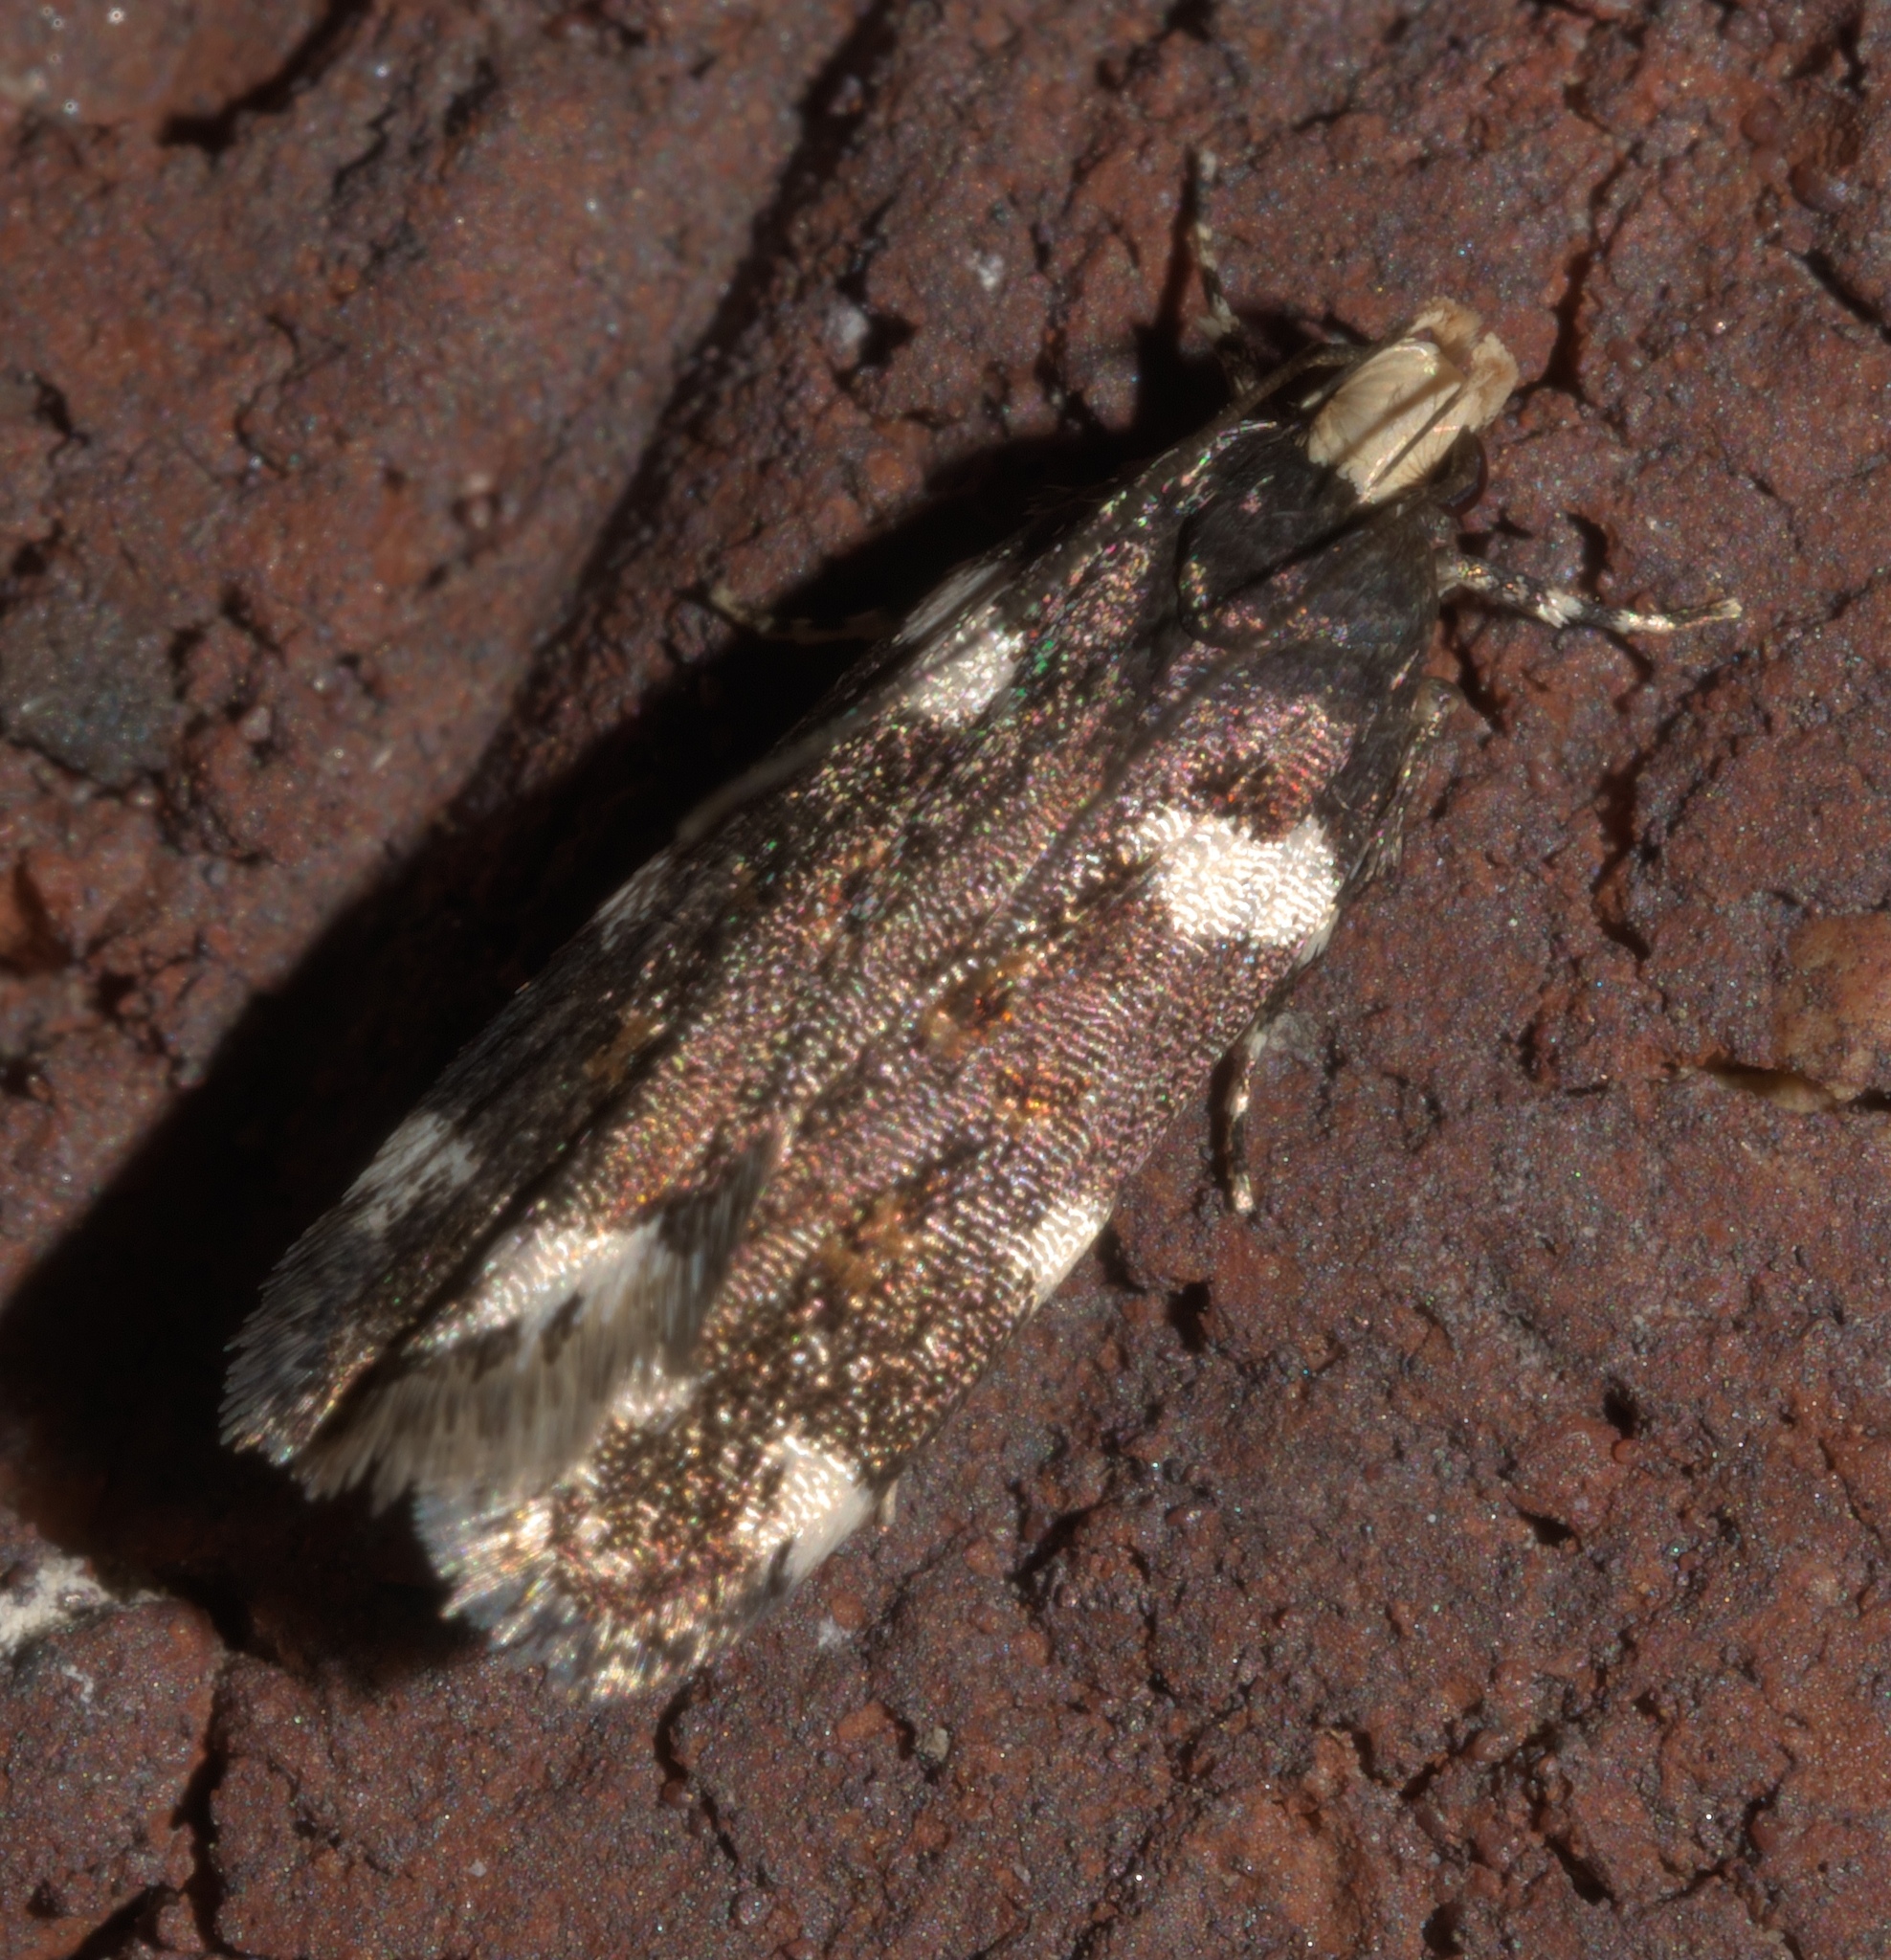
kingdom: Animalia
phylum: Arthropoda
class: Insecta
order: Lepidoptera
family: Gelechiidae
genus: Fascista
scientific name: Fascista cercerisella
